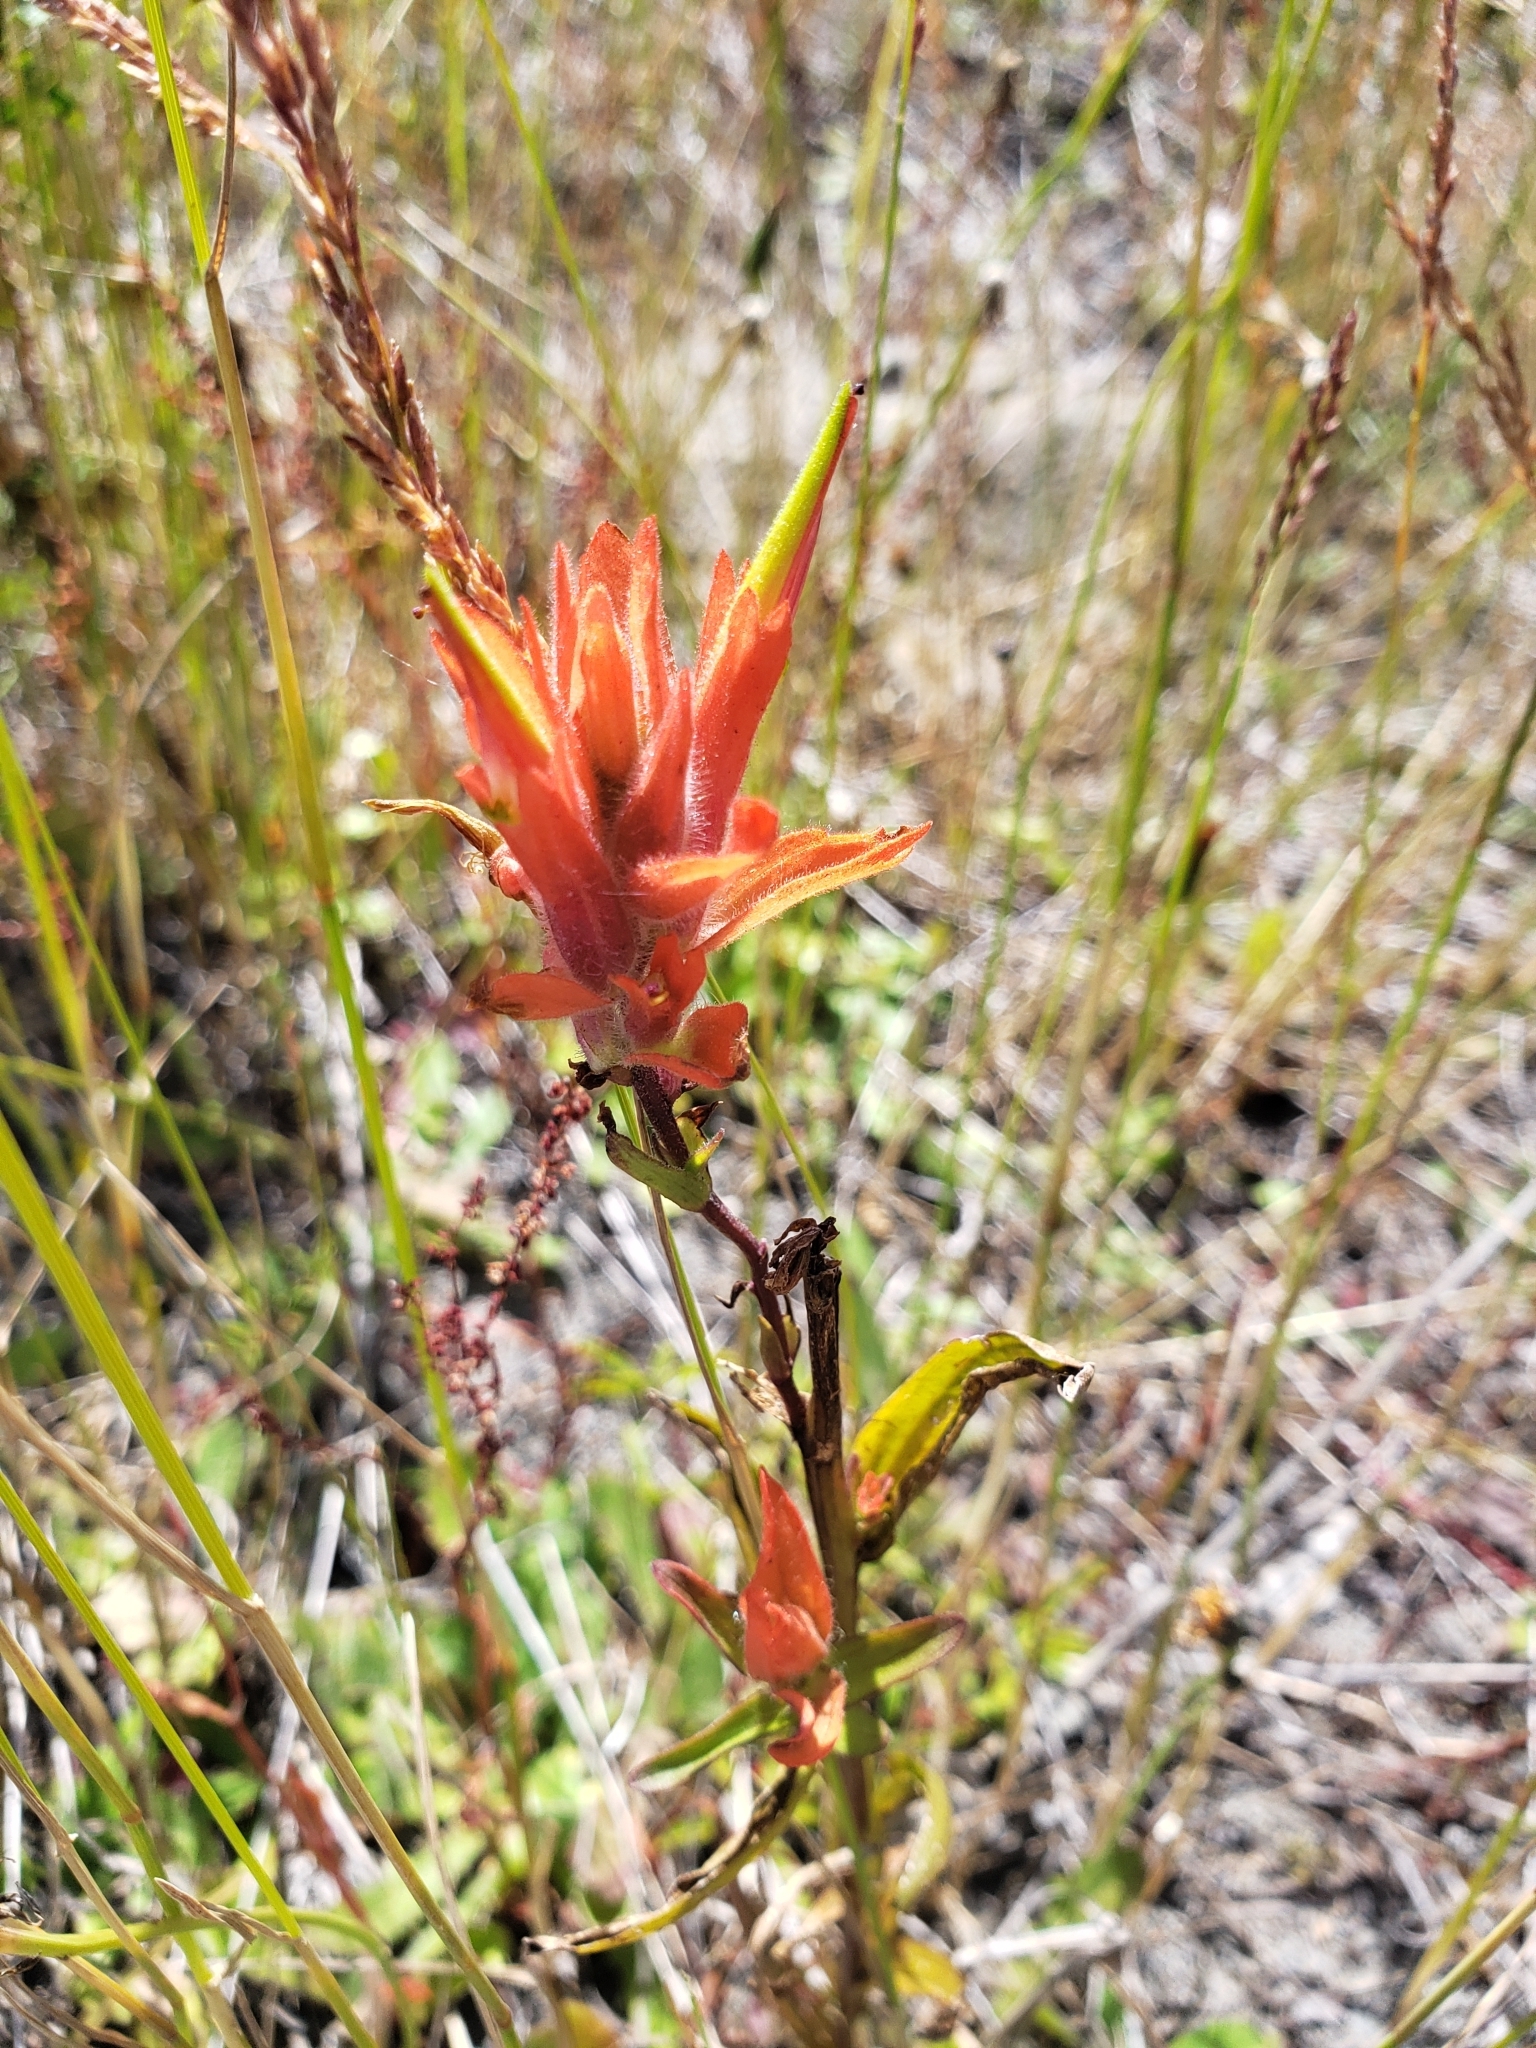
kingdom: Plantae
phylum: Tracheophyta
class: Magnoliopsida
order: Lamiales
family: Orobanchaceae
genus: Castilleja
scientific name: Castilleja miniata
